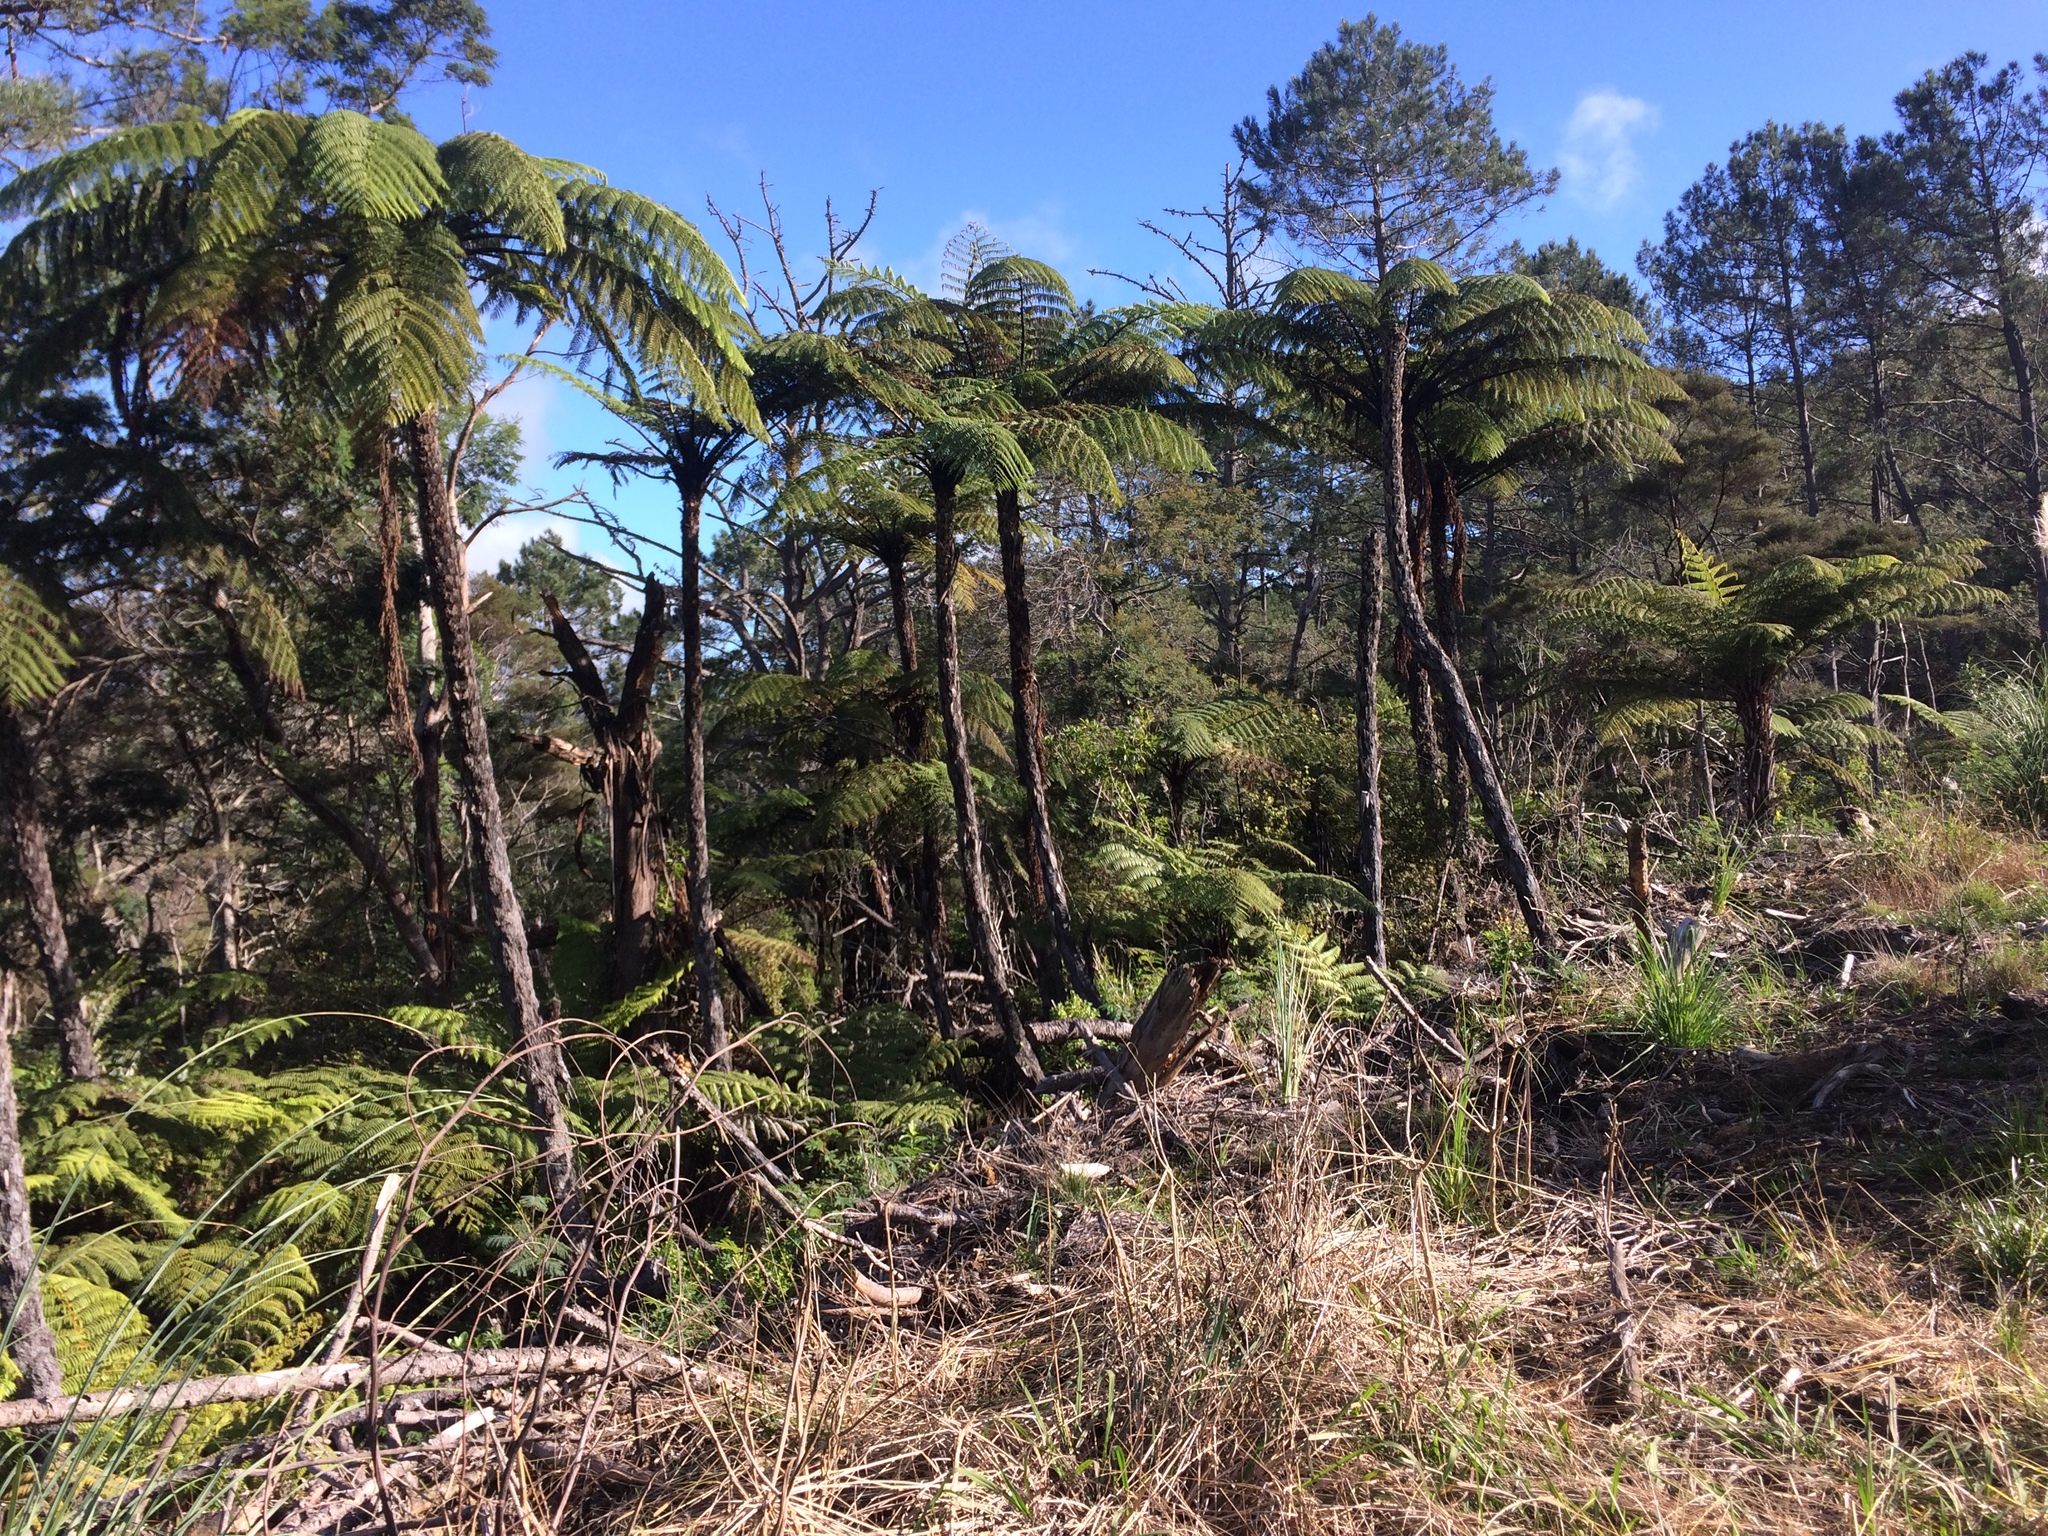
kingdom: Plantae
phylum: Tracheophyta
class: Polypodiopsida
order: Cyatheales
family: Cyatheaceae
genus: Sphaeropteris
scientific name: Sphaeropteris medullaris
